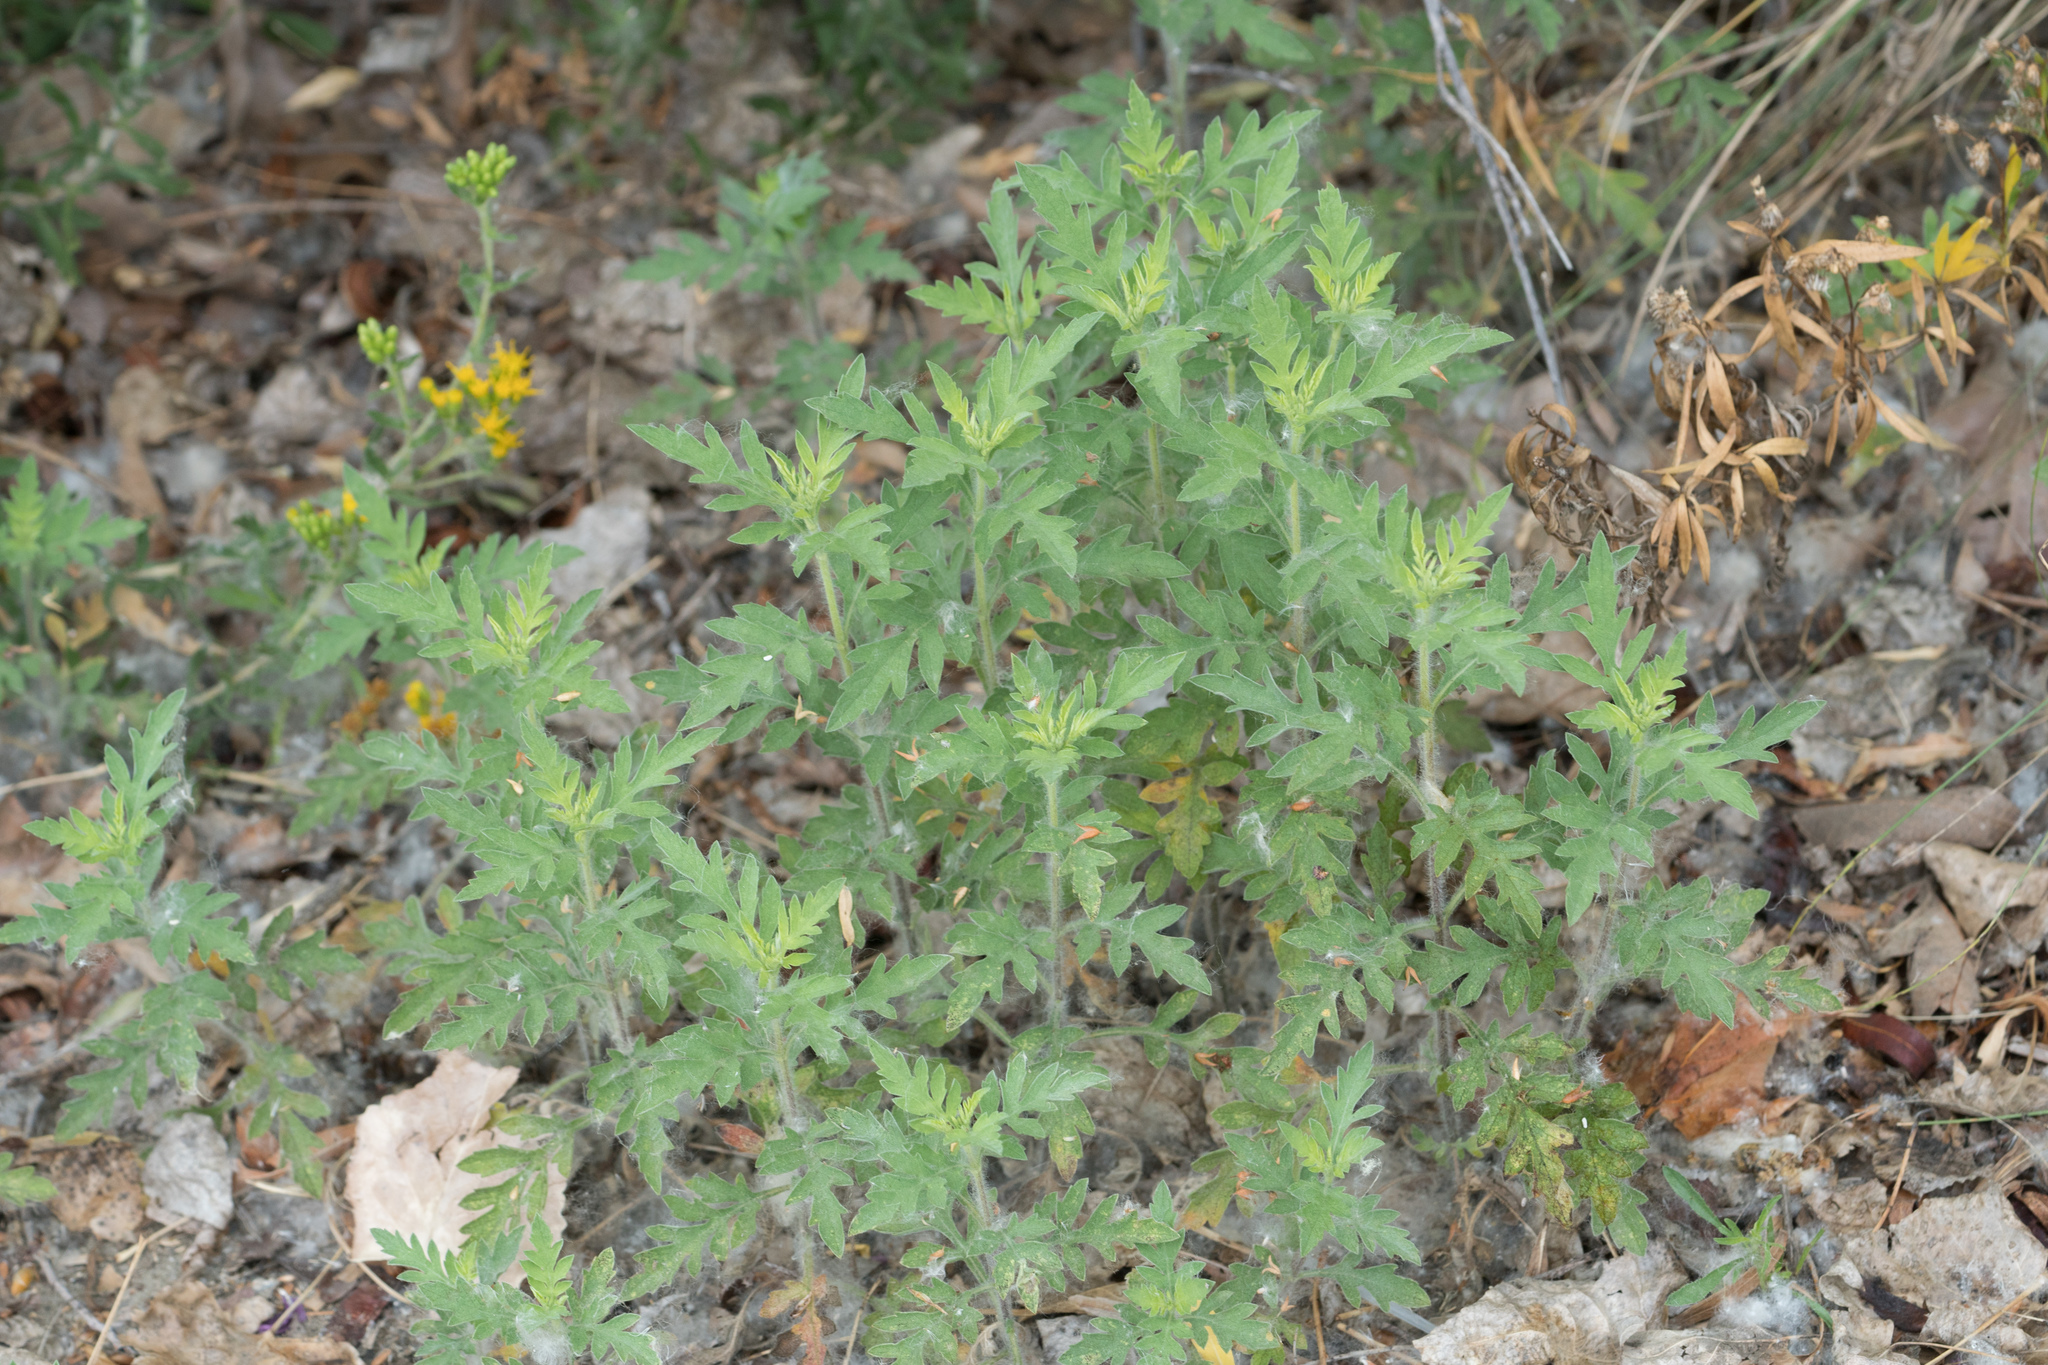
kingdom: Plantae
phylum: Tracheophyta
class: Magnoliopsida
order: Asterales
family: Asteraceae
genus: Ambrosia
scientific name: Ambrosia psilostachya
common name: Perennial ragweed
